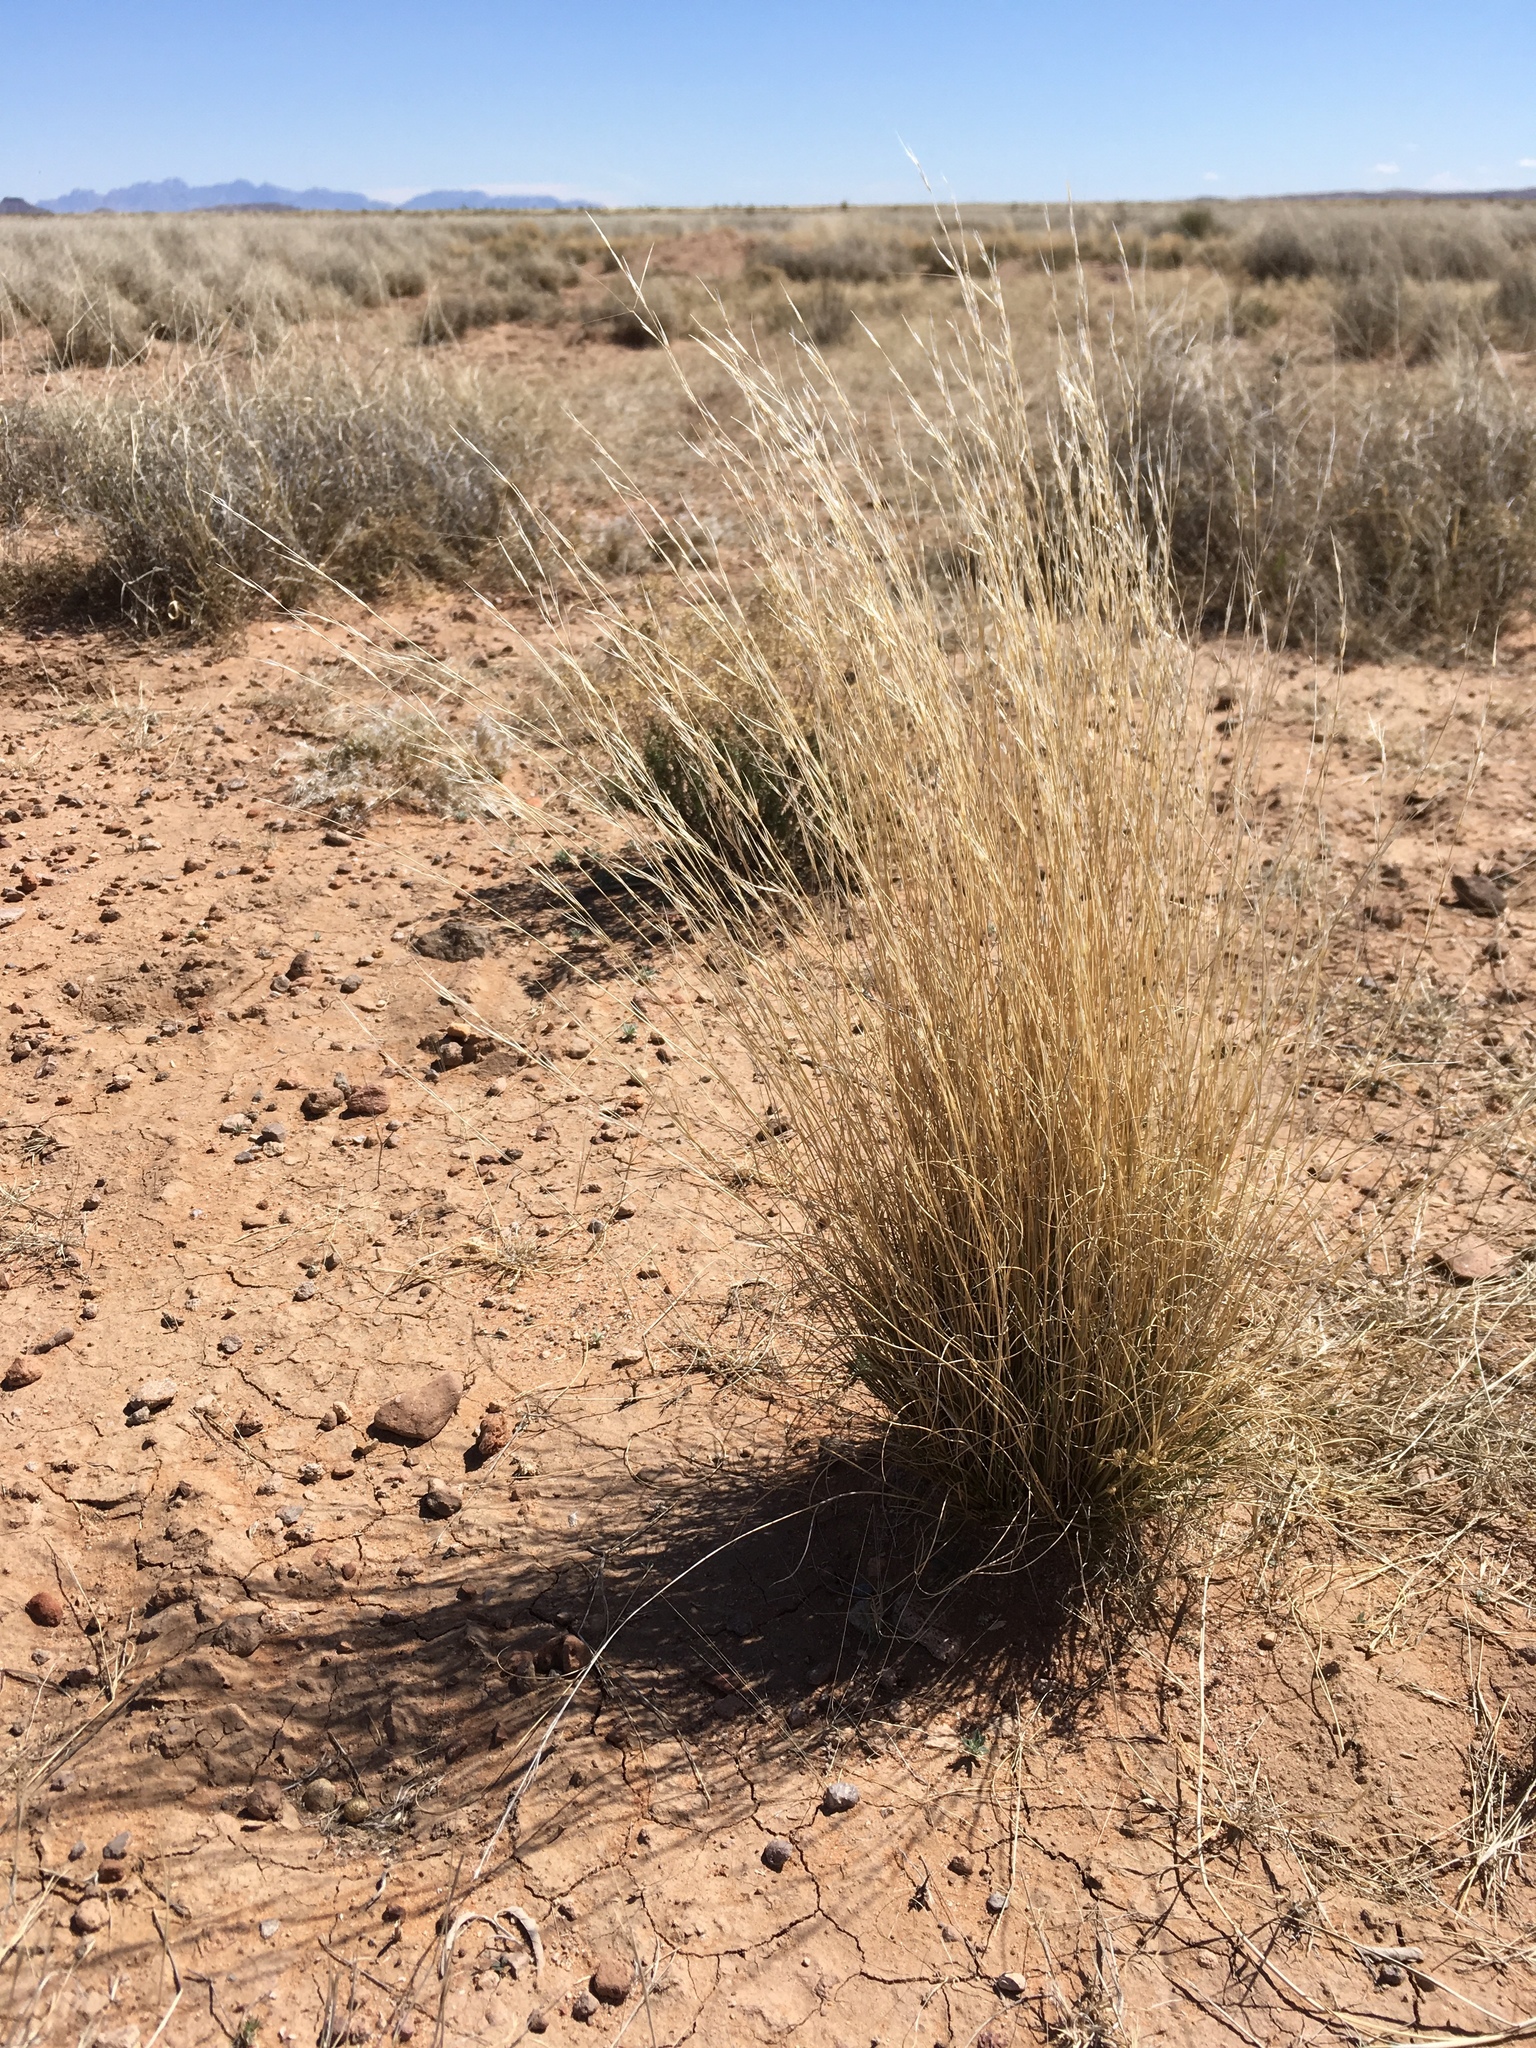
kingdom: Plantae
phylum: Tracheophyta
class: Liliopsida
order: Poales
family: Poaceae
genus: Aristida
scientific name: Aristida purpurea
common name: Purple threeawn
